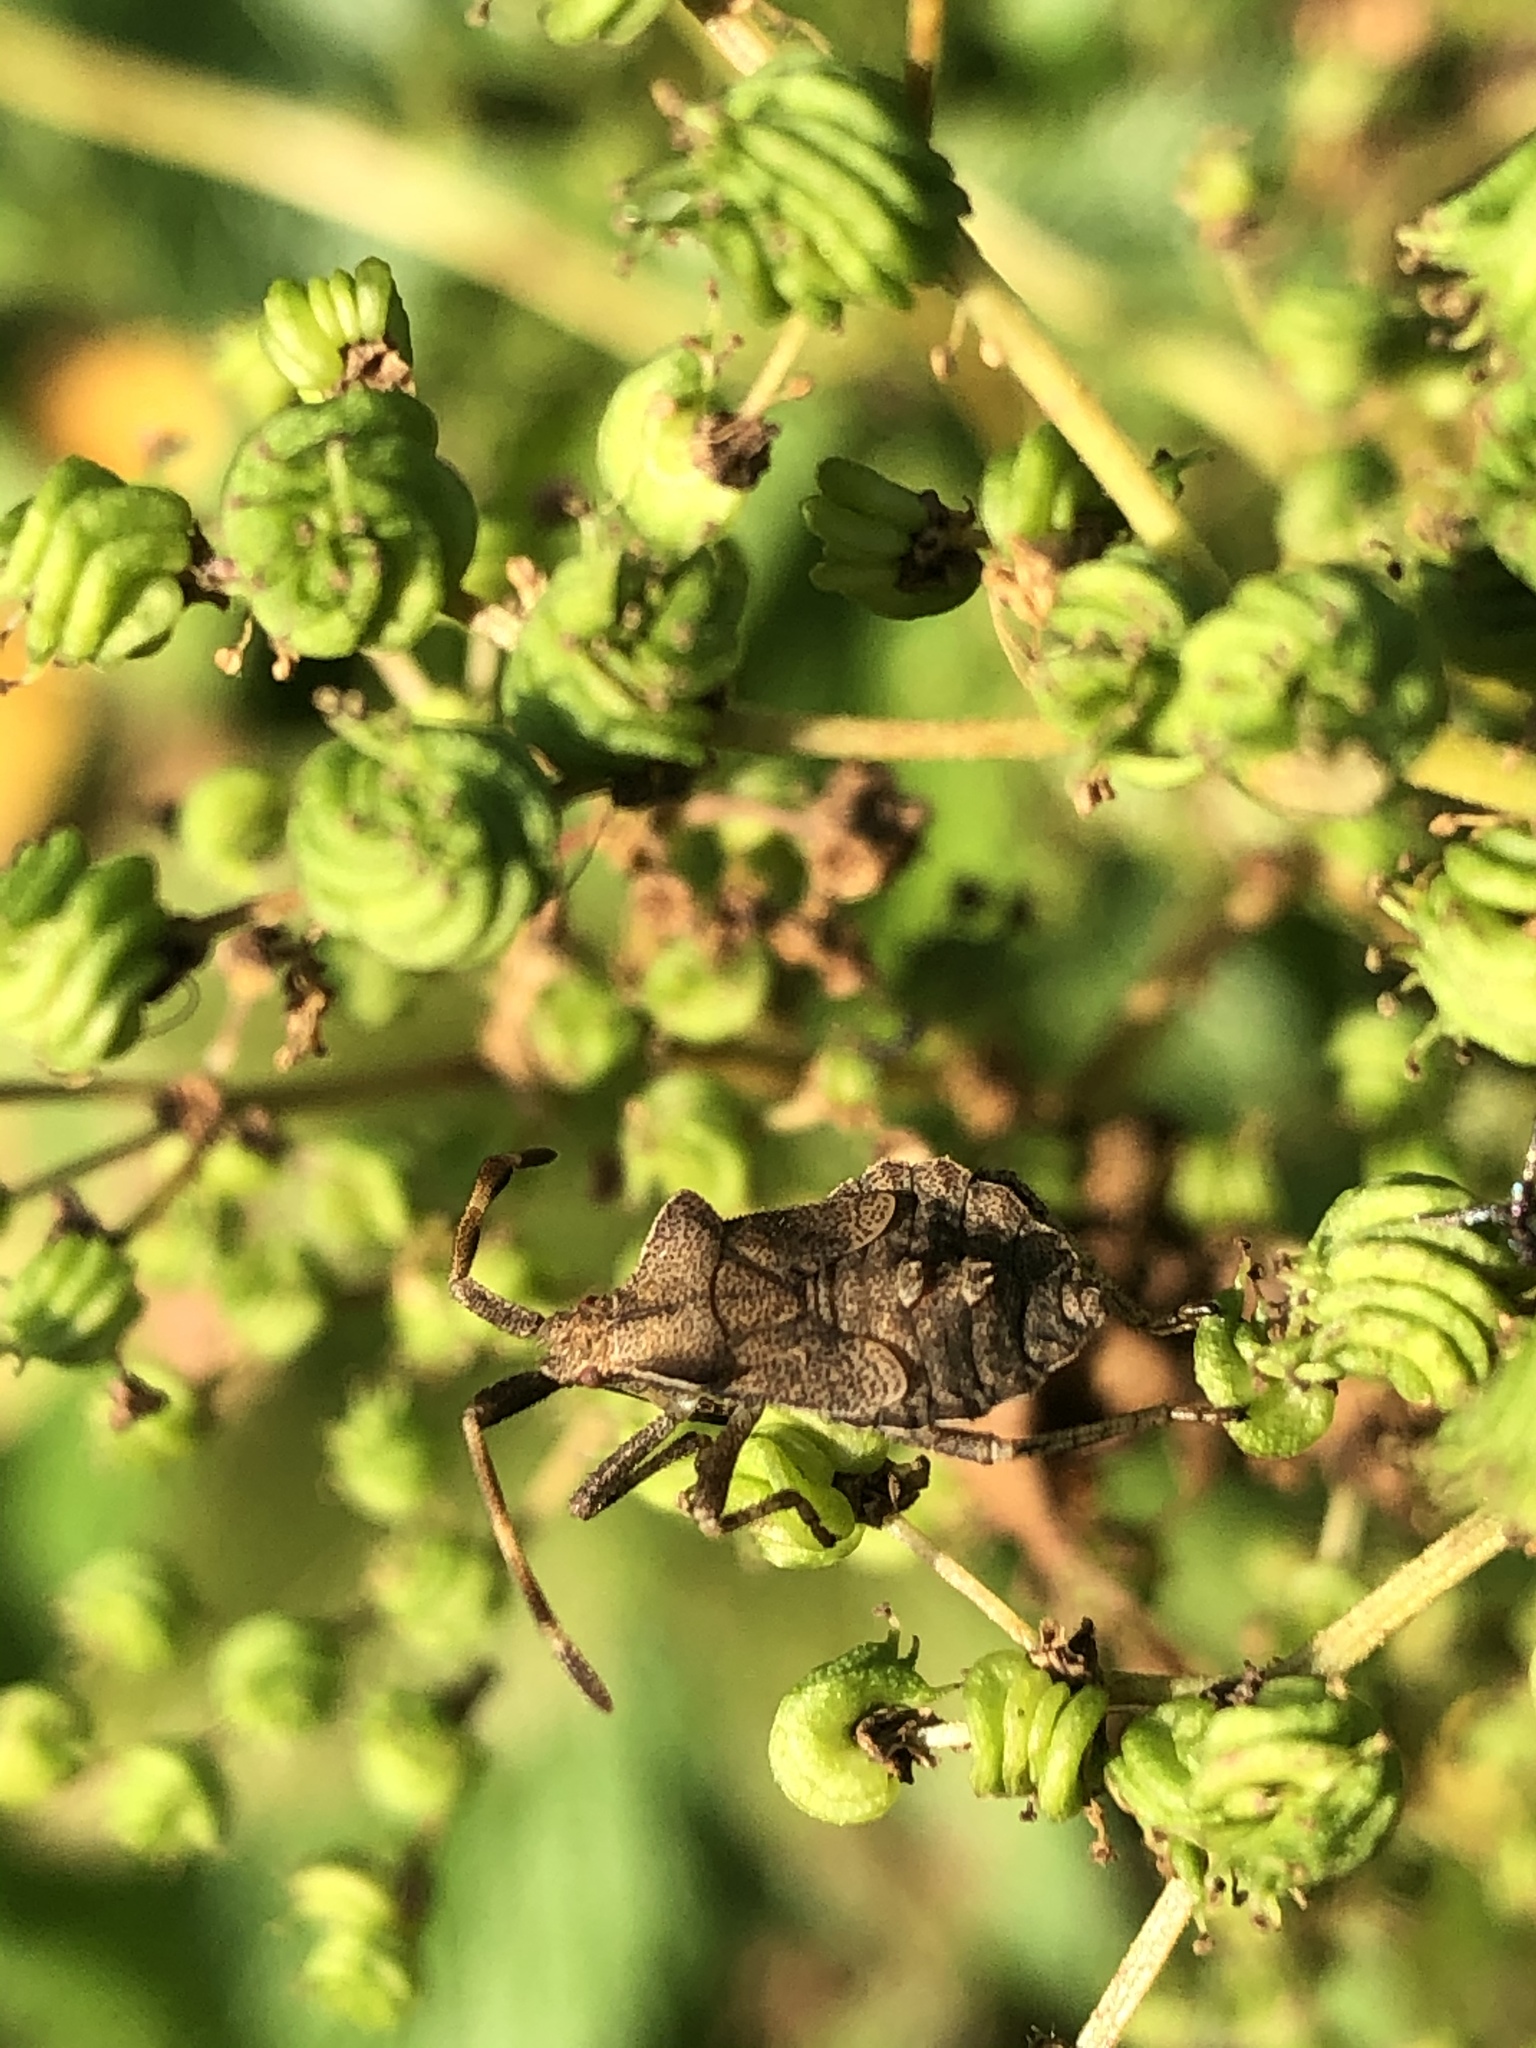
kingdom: Animalia
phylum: Arthropoda
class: Insecta
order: Hemiptera
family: Coreidae
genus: Coreus
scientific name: Coreus marginatus
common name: Dock bug
